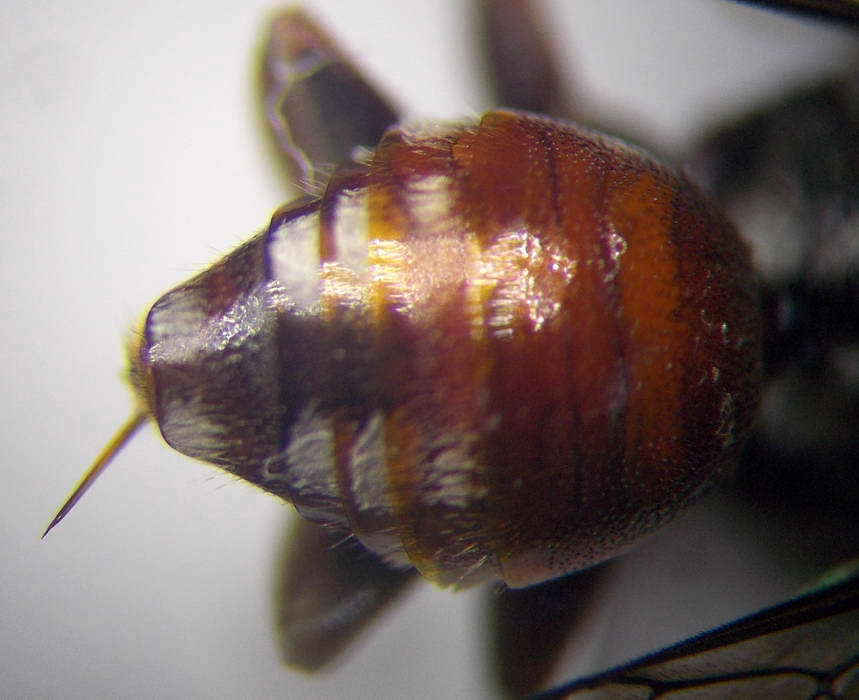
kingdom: Animalia
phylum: Arthropoda
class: Insecta
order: Hymenoptera
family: Apidae
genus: Pasites
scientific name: Pasites maculatus
